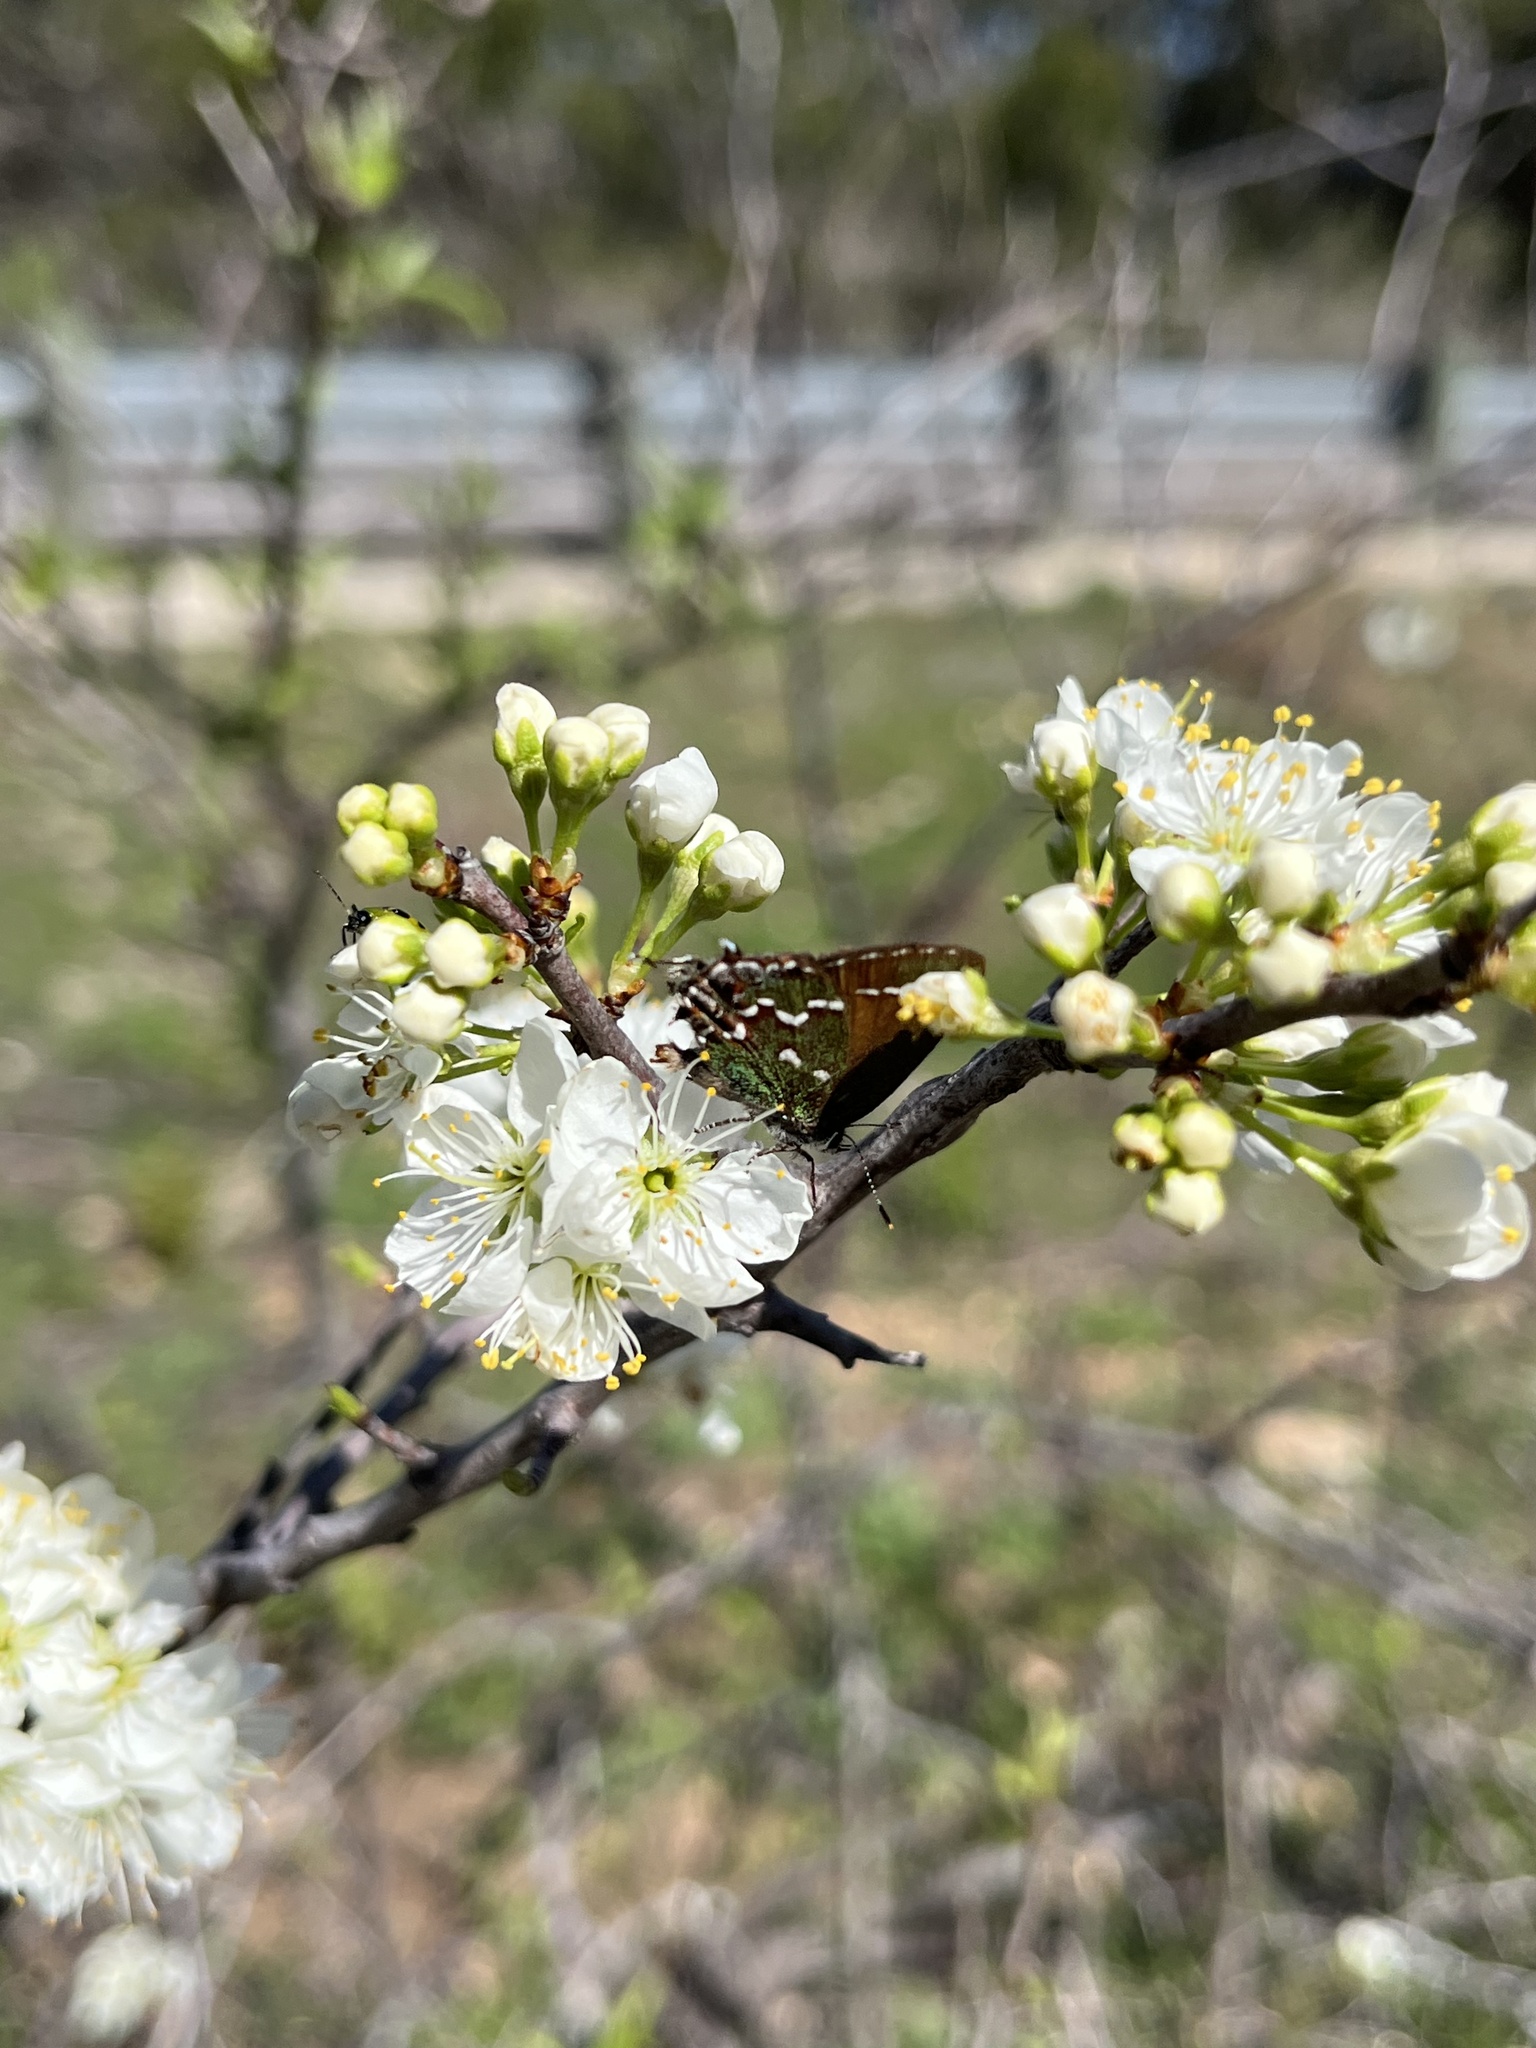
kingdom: Animalia
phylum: Arthropoda
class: Insecta
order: Lepidoptera
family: Lycaenidae
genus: Mitoura
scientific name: Mitoura gryneus
